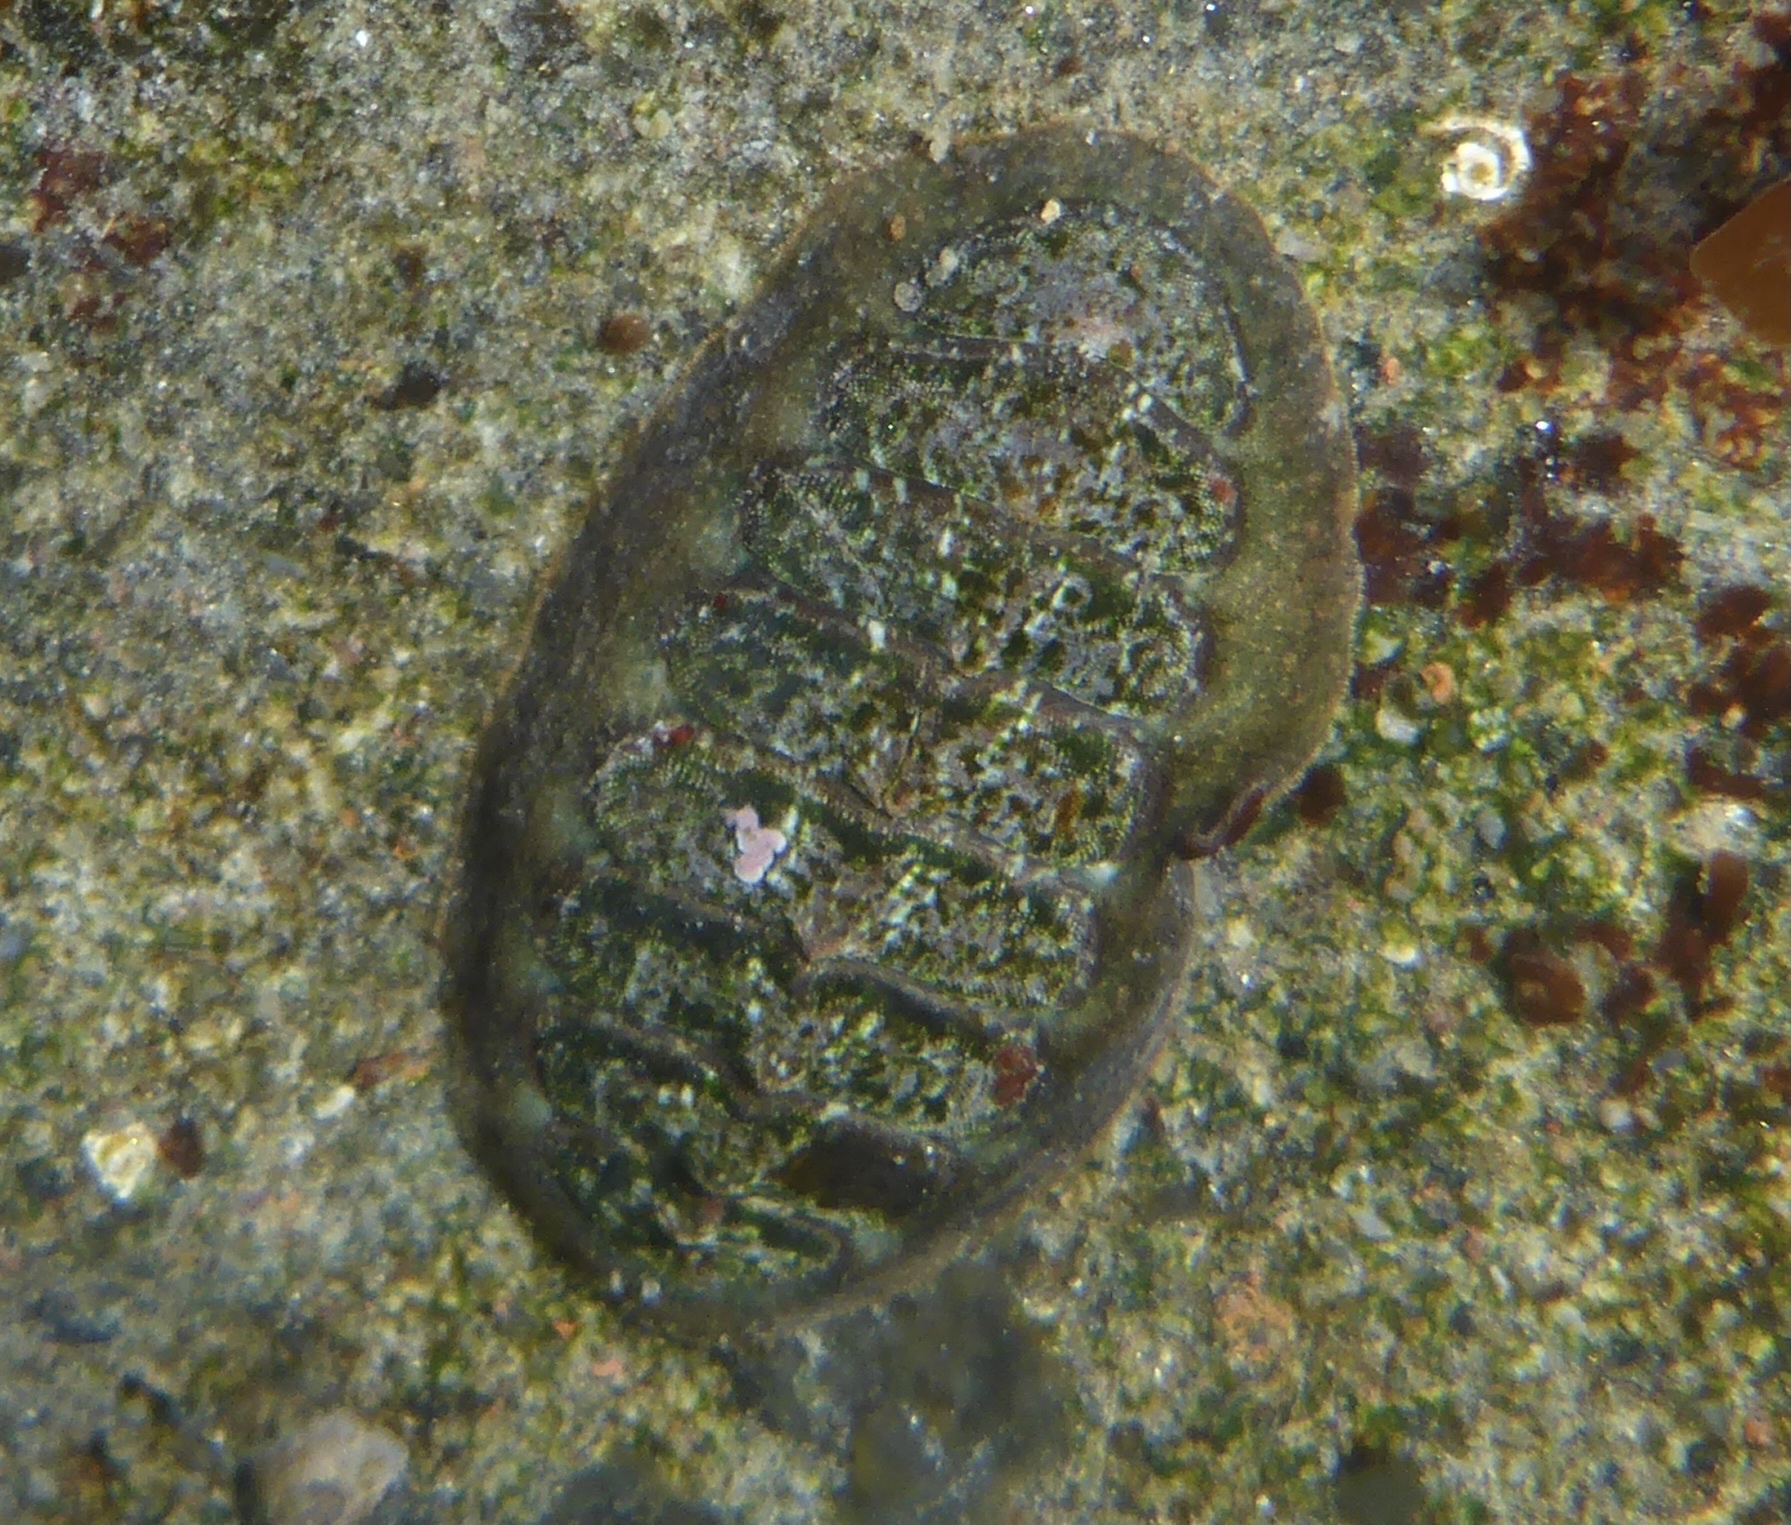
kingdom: Animalia
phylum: Mollusca
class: Polyplacophora
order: Chitonida
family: Tonicellidae
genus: Cyanoplax
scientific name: Cyanoplax dentiens
